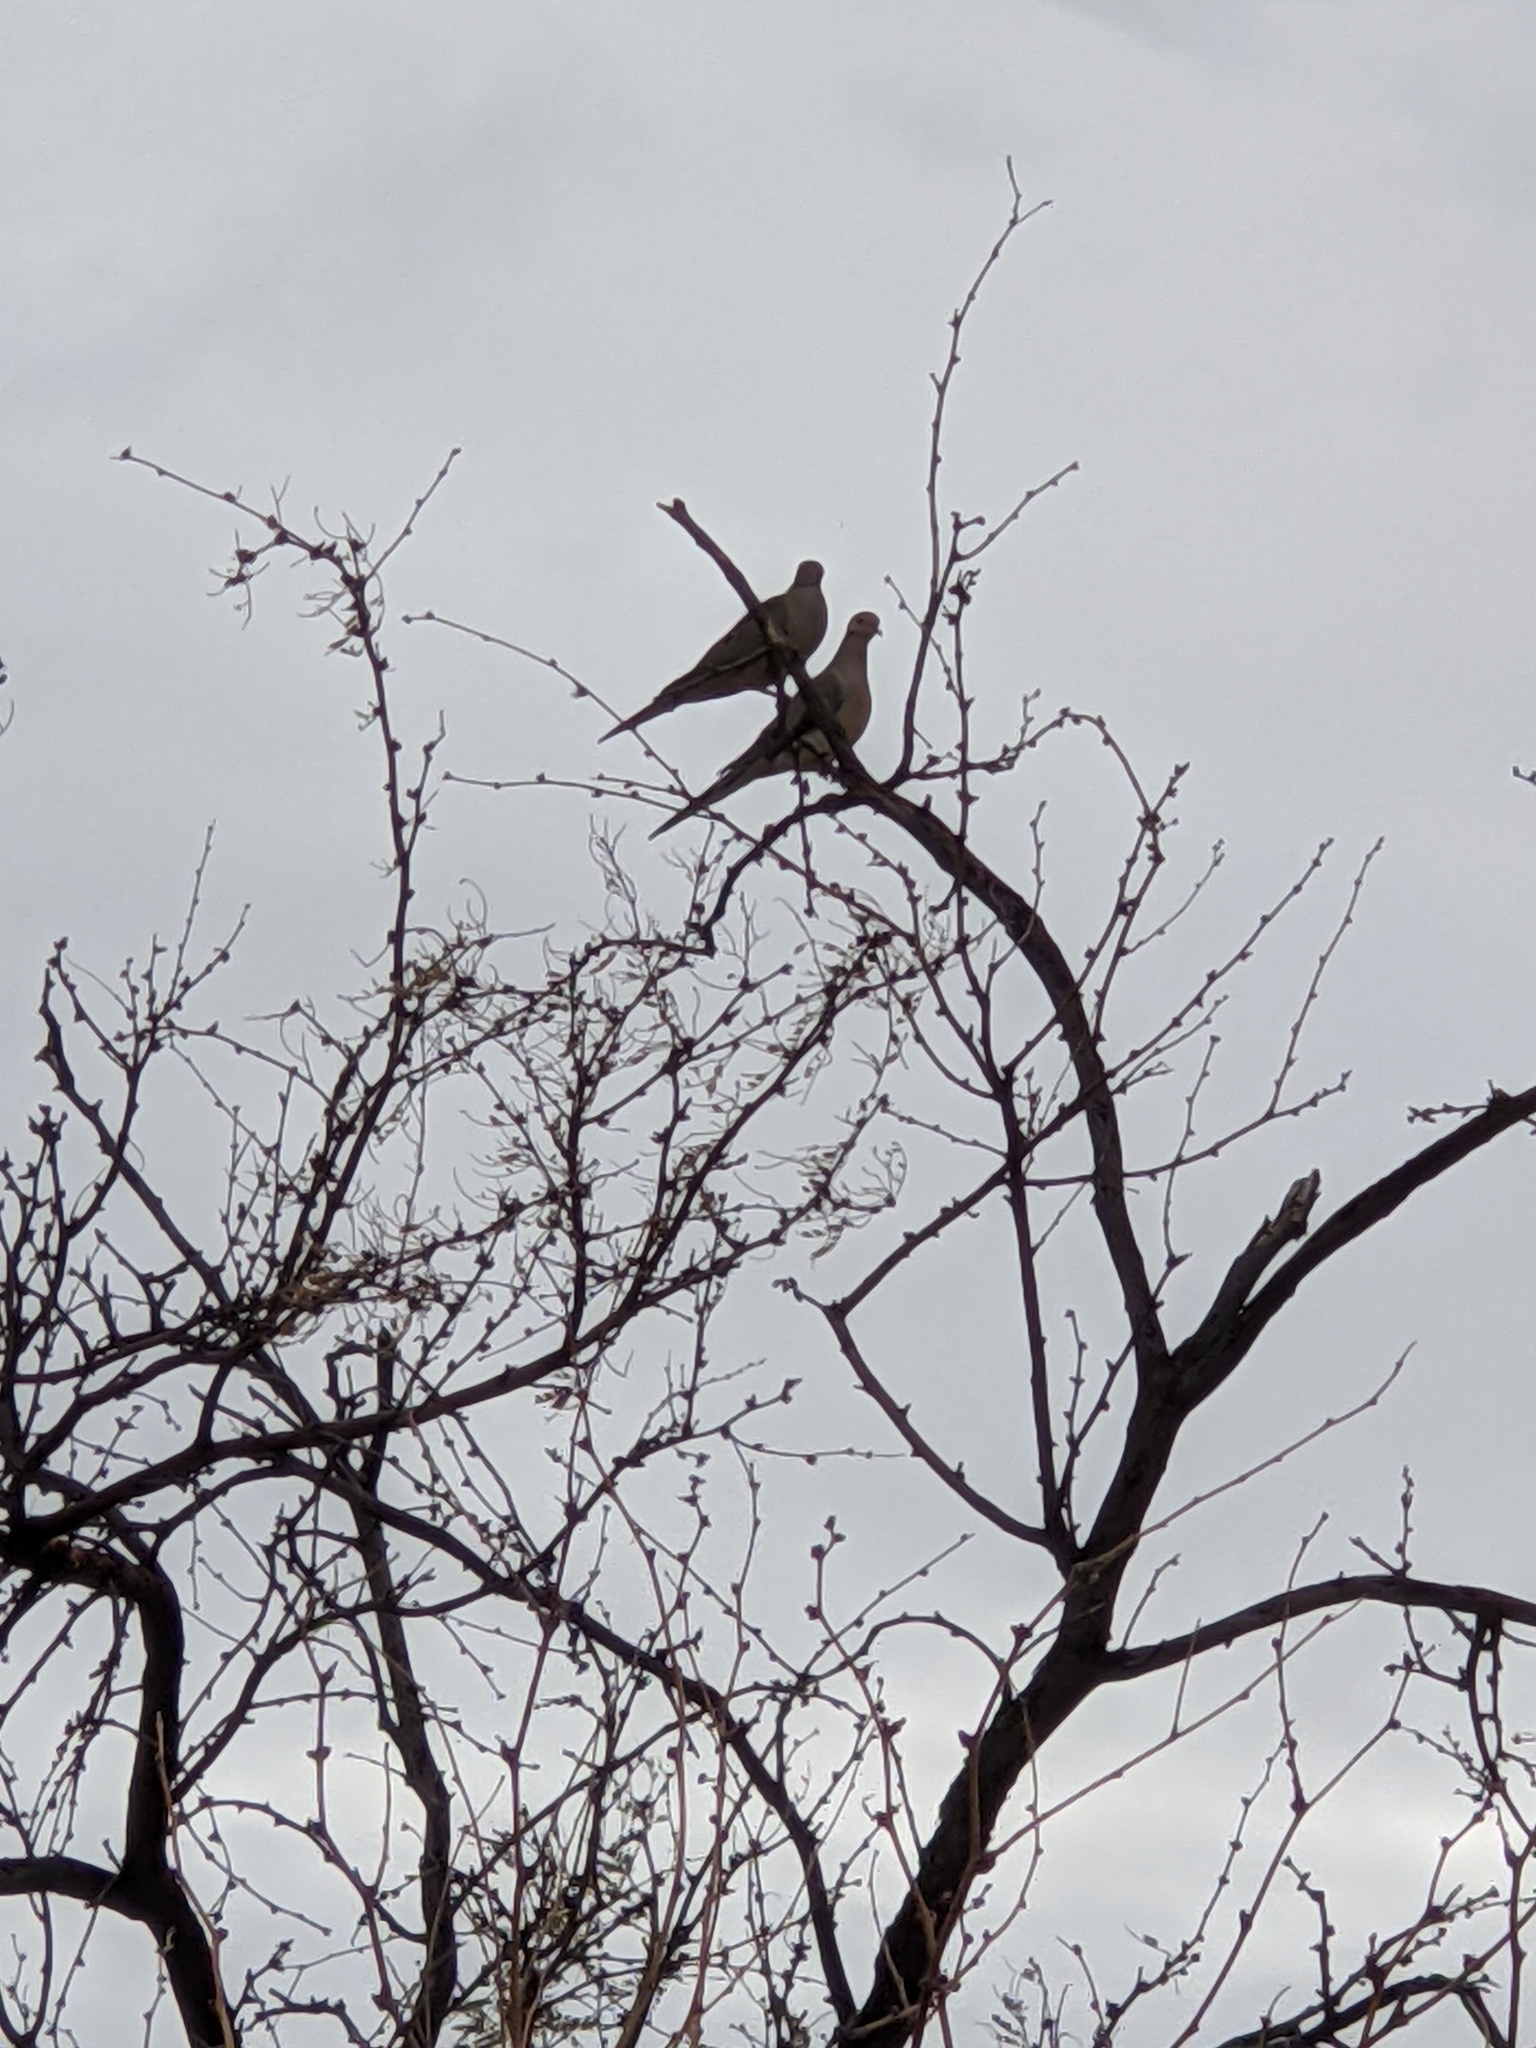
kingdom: Animalia
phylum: Chordata
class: Aves
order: Columbiformes
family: Columbidae
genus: Zenaida
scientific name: Zenaida macroura
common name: Mourning dove
